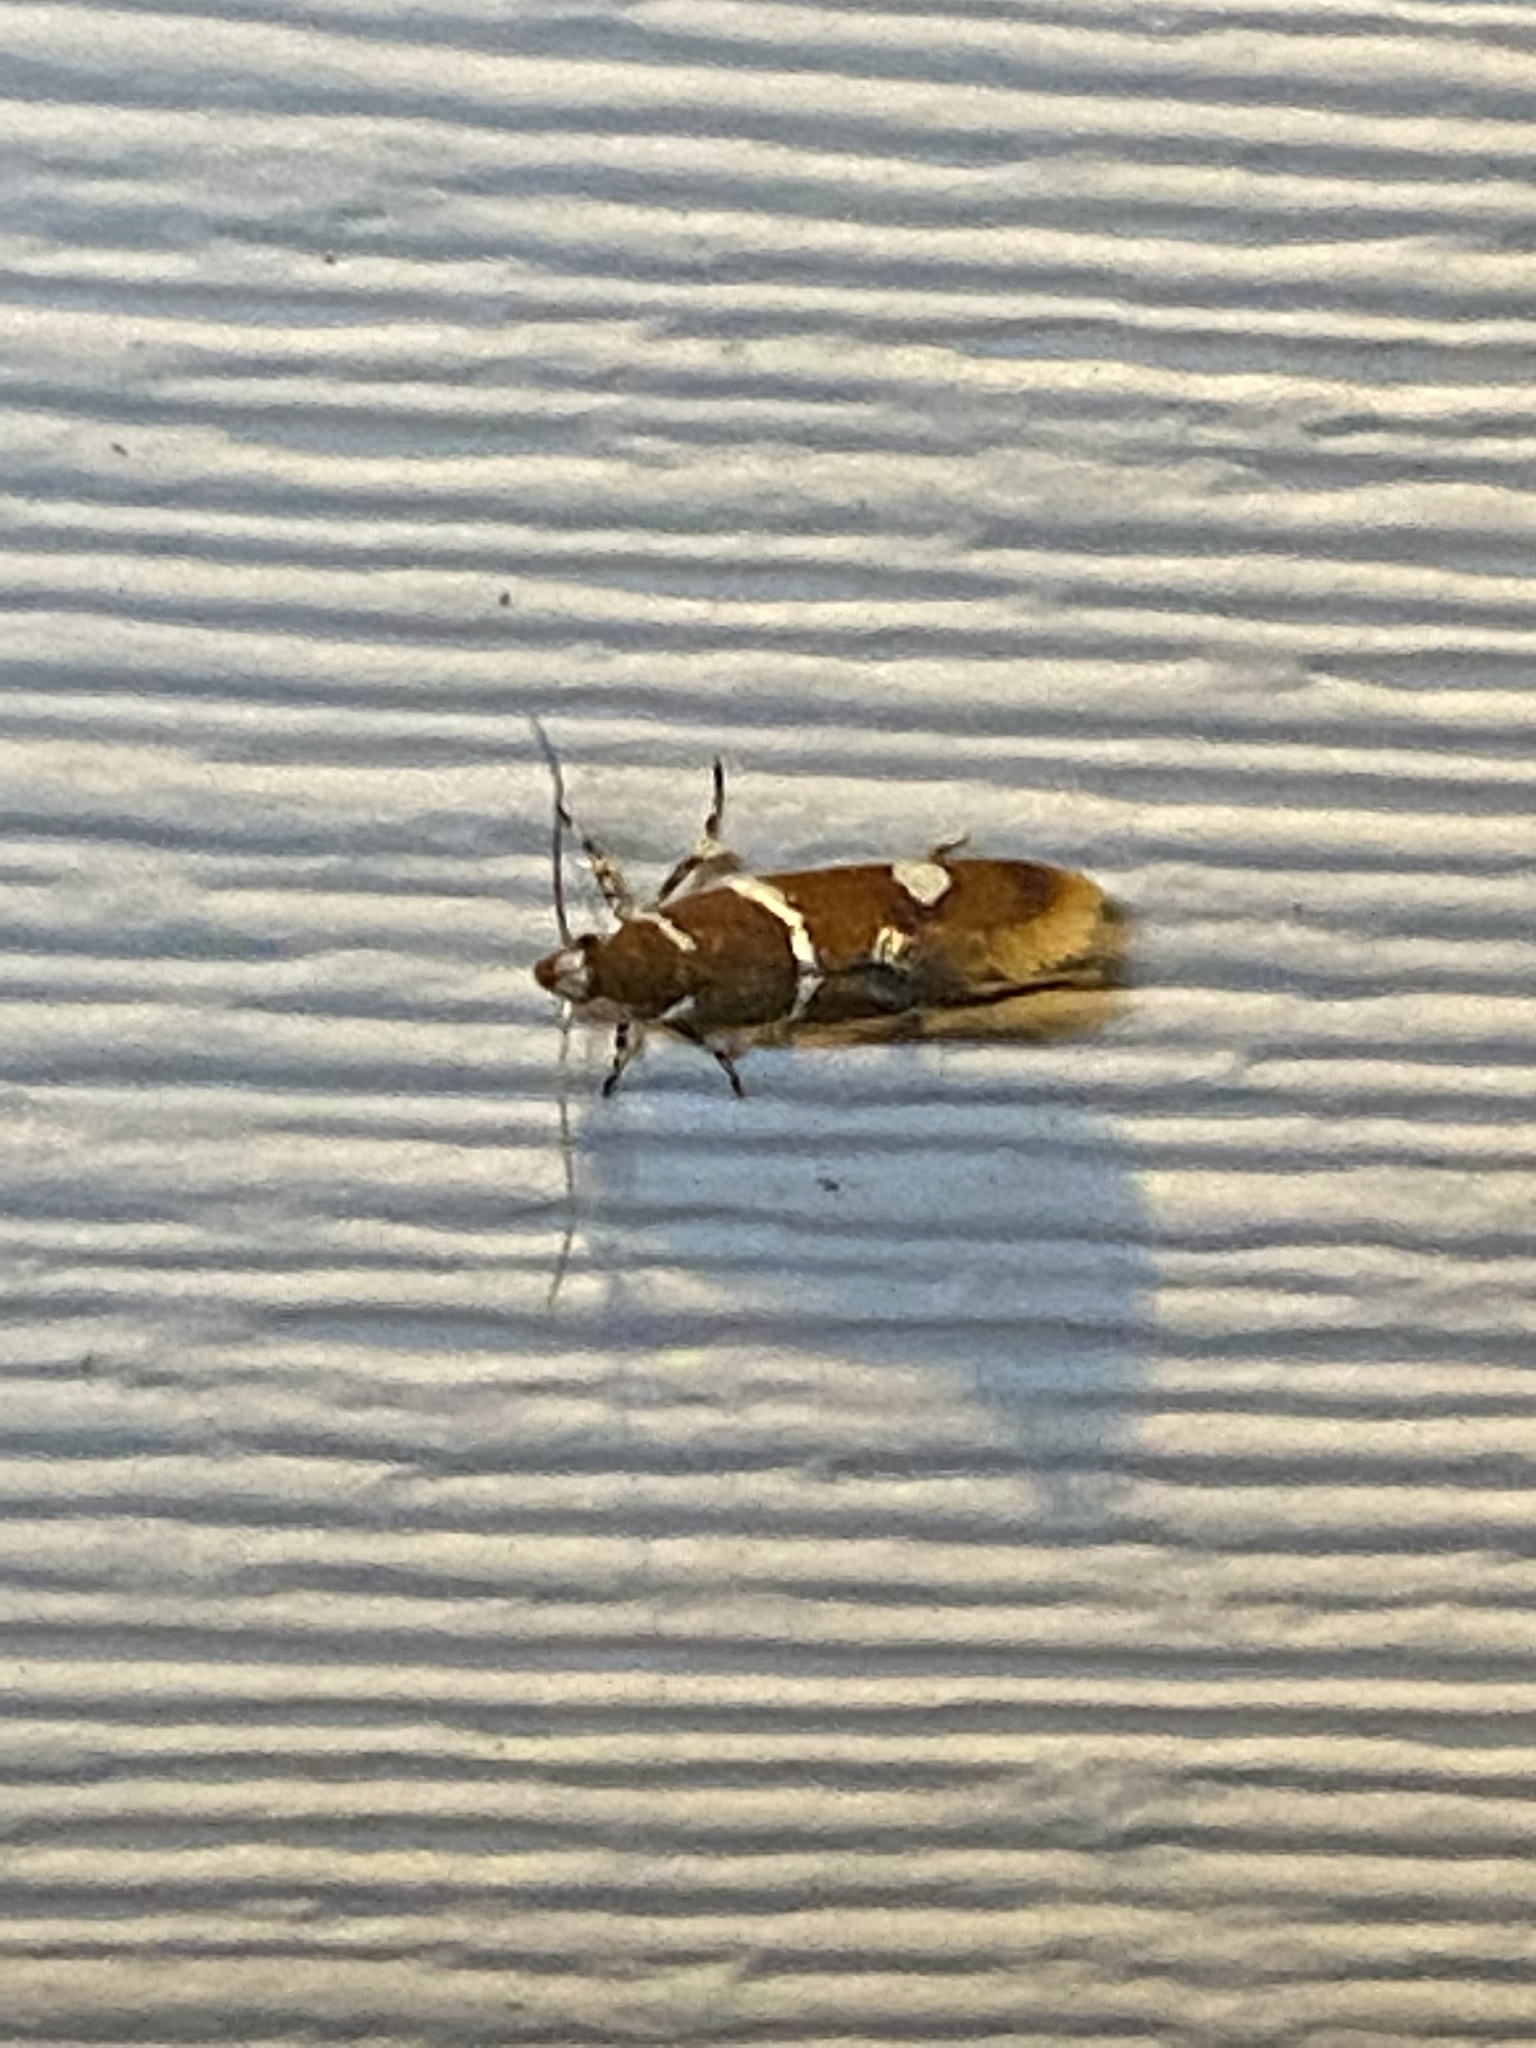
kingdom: Animalia
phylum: Arthropoda
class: Insecta
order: Lepidoptera
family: Oecophoridae
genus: Promalactis
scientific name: Promalactis suzukiella
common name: Moth
